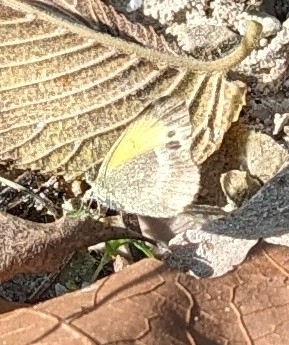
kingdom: Animalia
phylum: Arthropoda
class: Insecta
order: Lepidoptera
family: Pieridae
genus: Nathalis
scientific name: Nathalis iole
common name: Dainty sulphur
